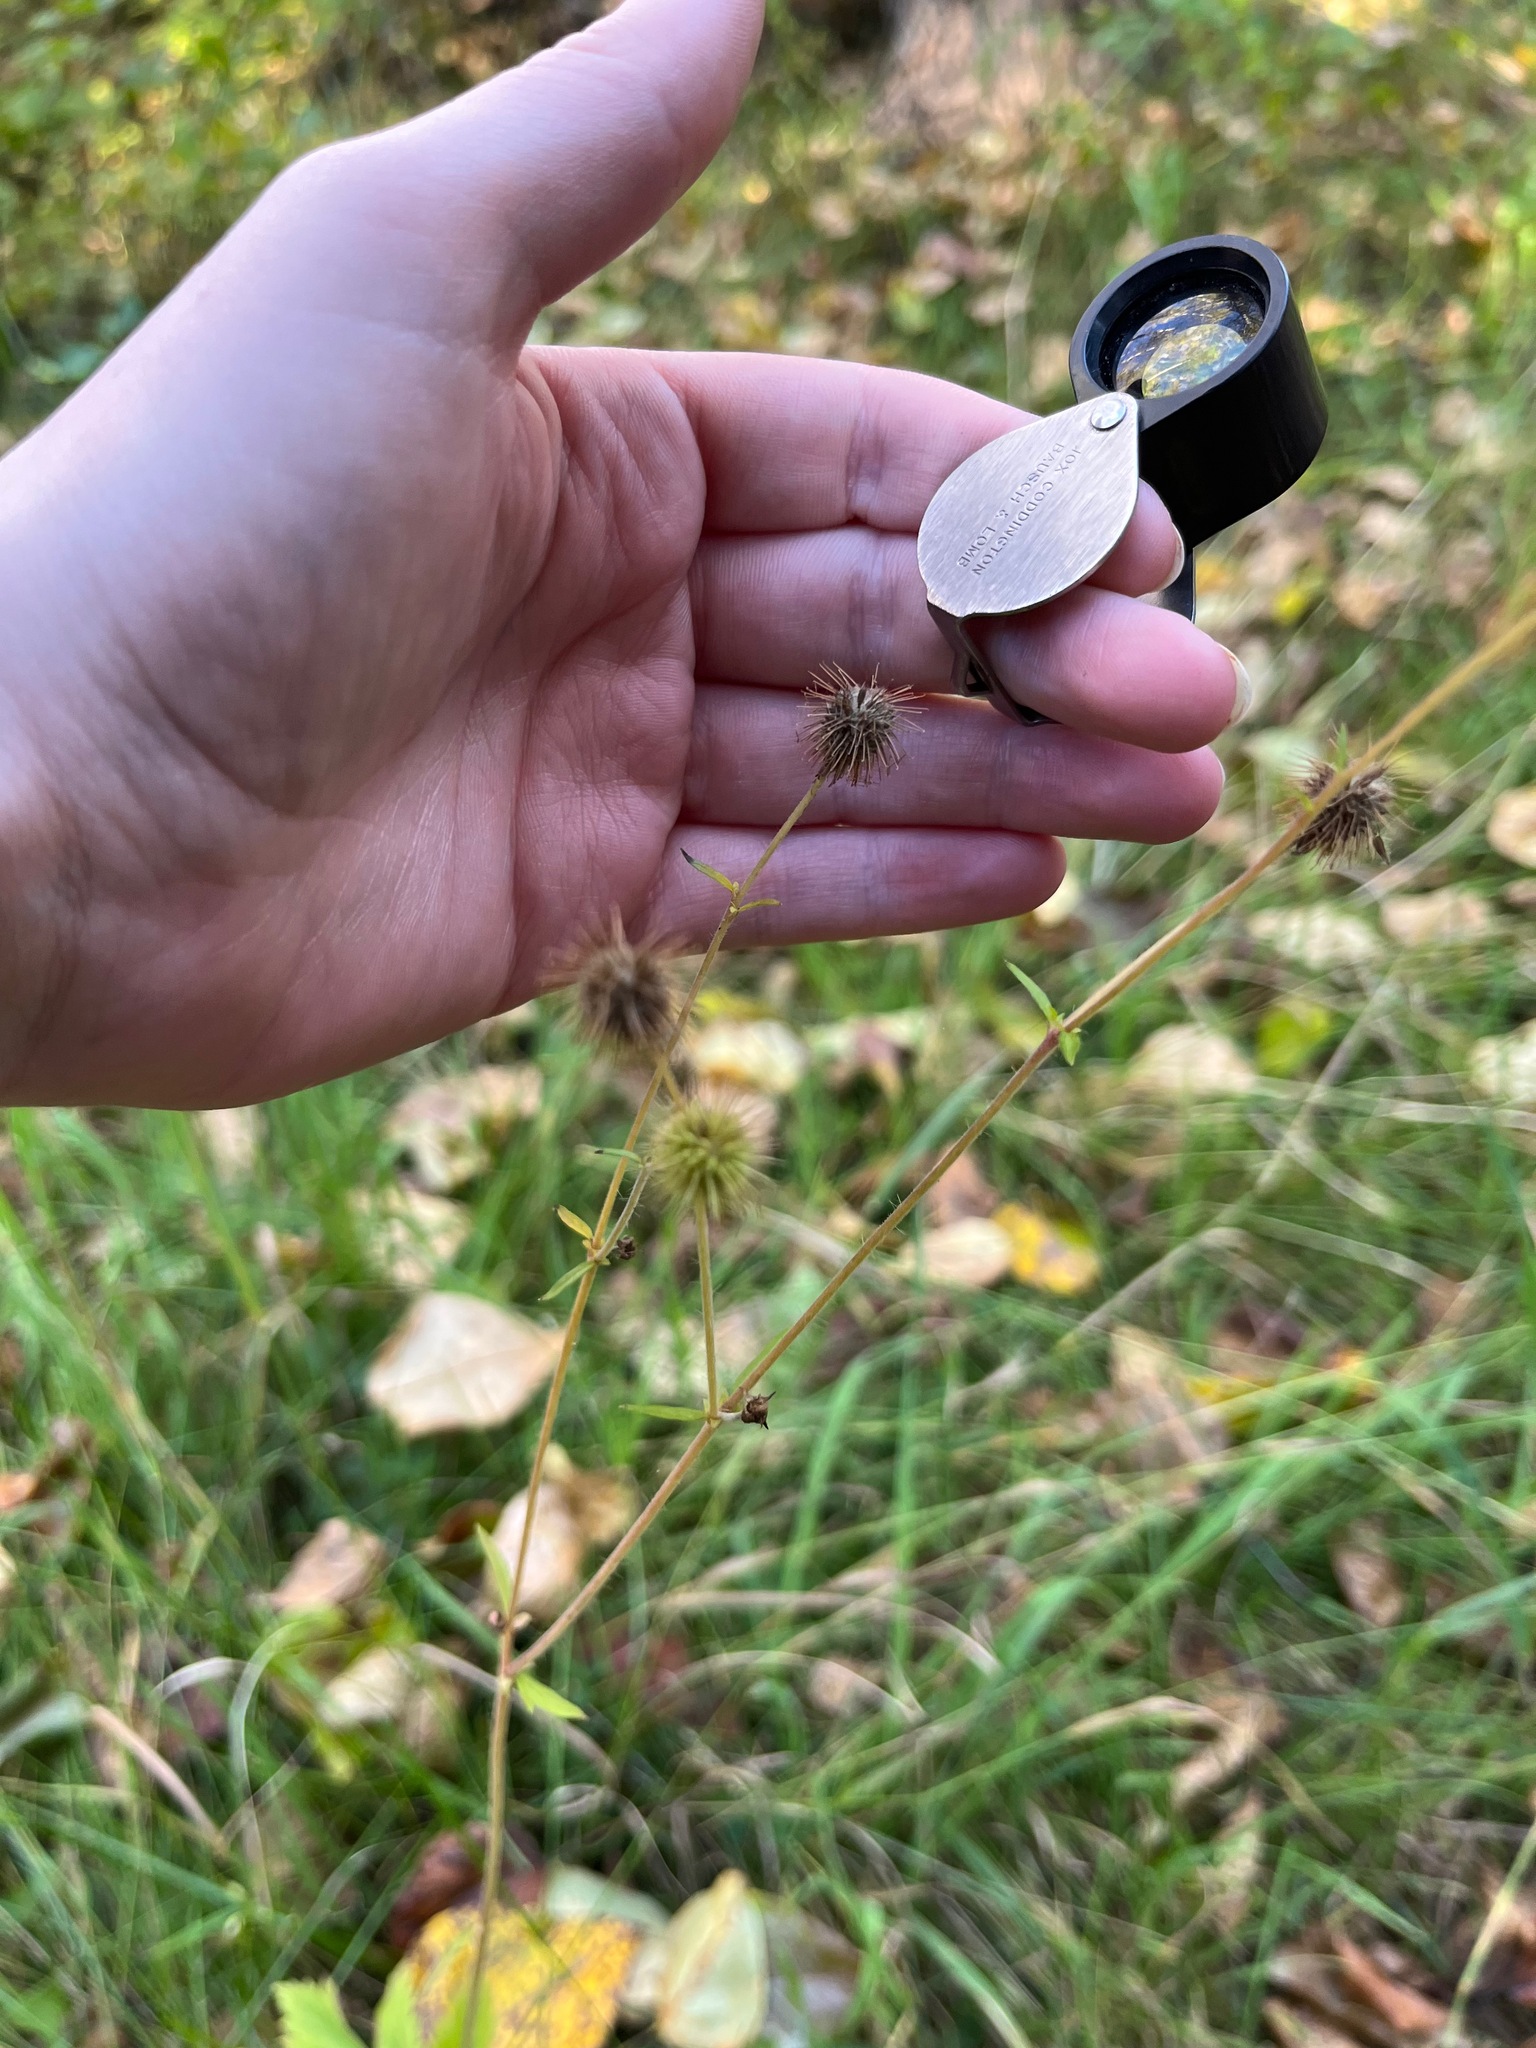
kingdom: Plantae
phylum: Tracheophyta
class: Magnoliopsida
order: Rosales
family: Rosaceae
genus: Geum
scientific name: Geum macrophyllum
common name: Large-leaved avens
